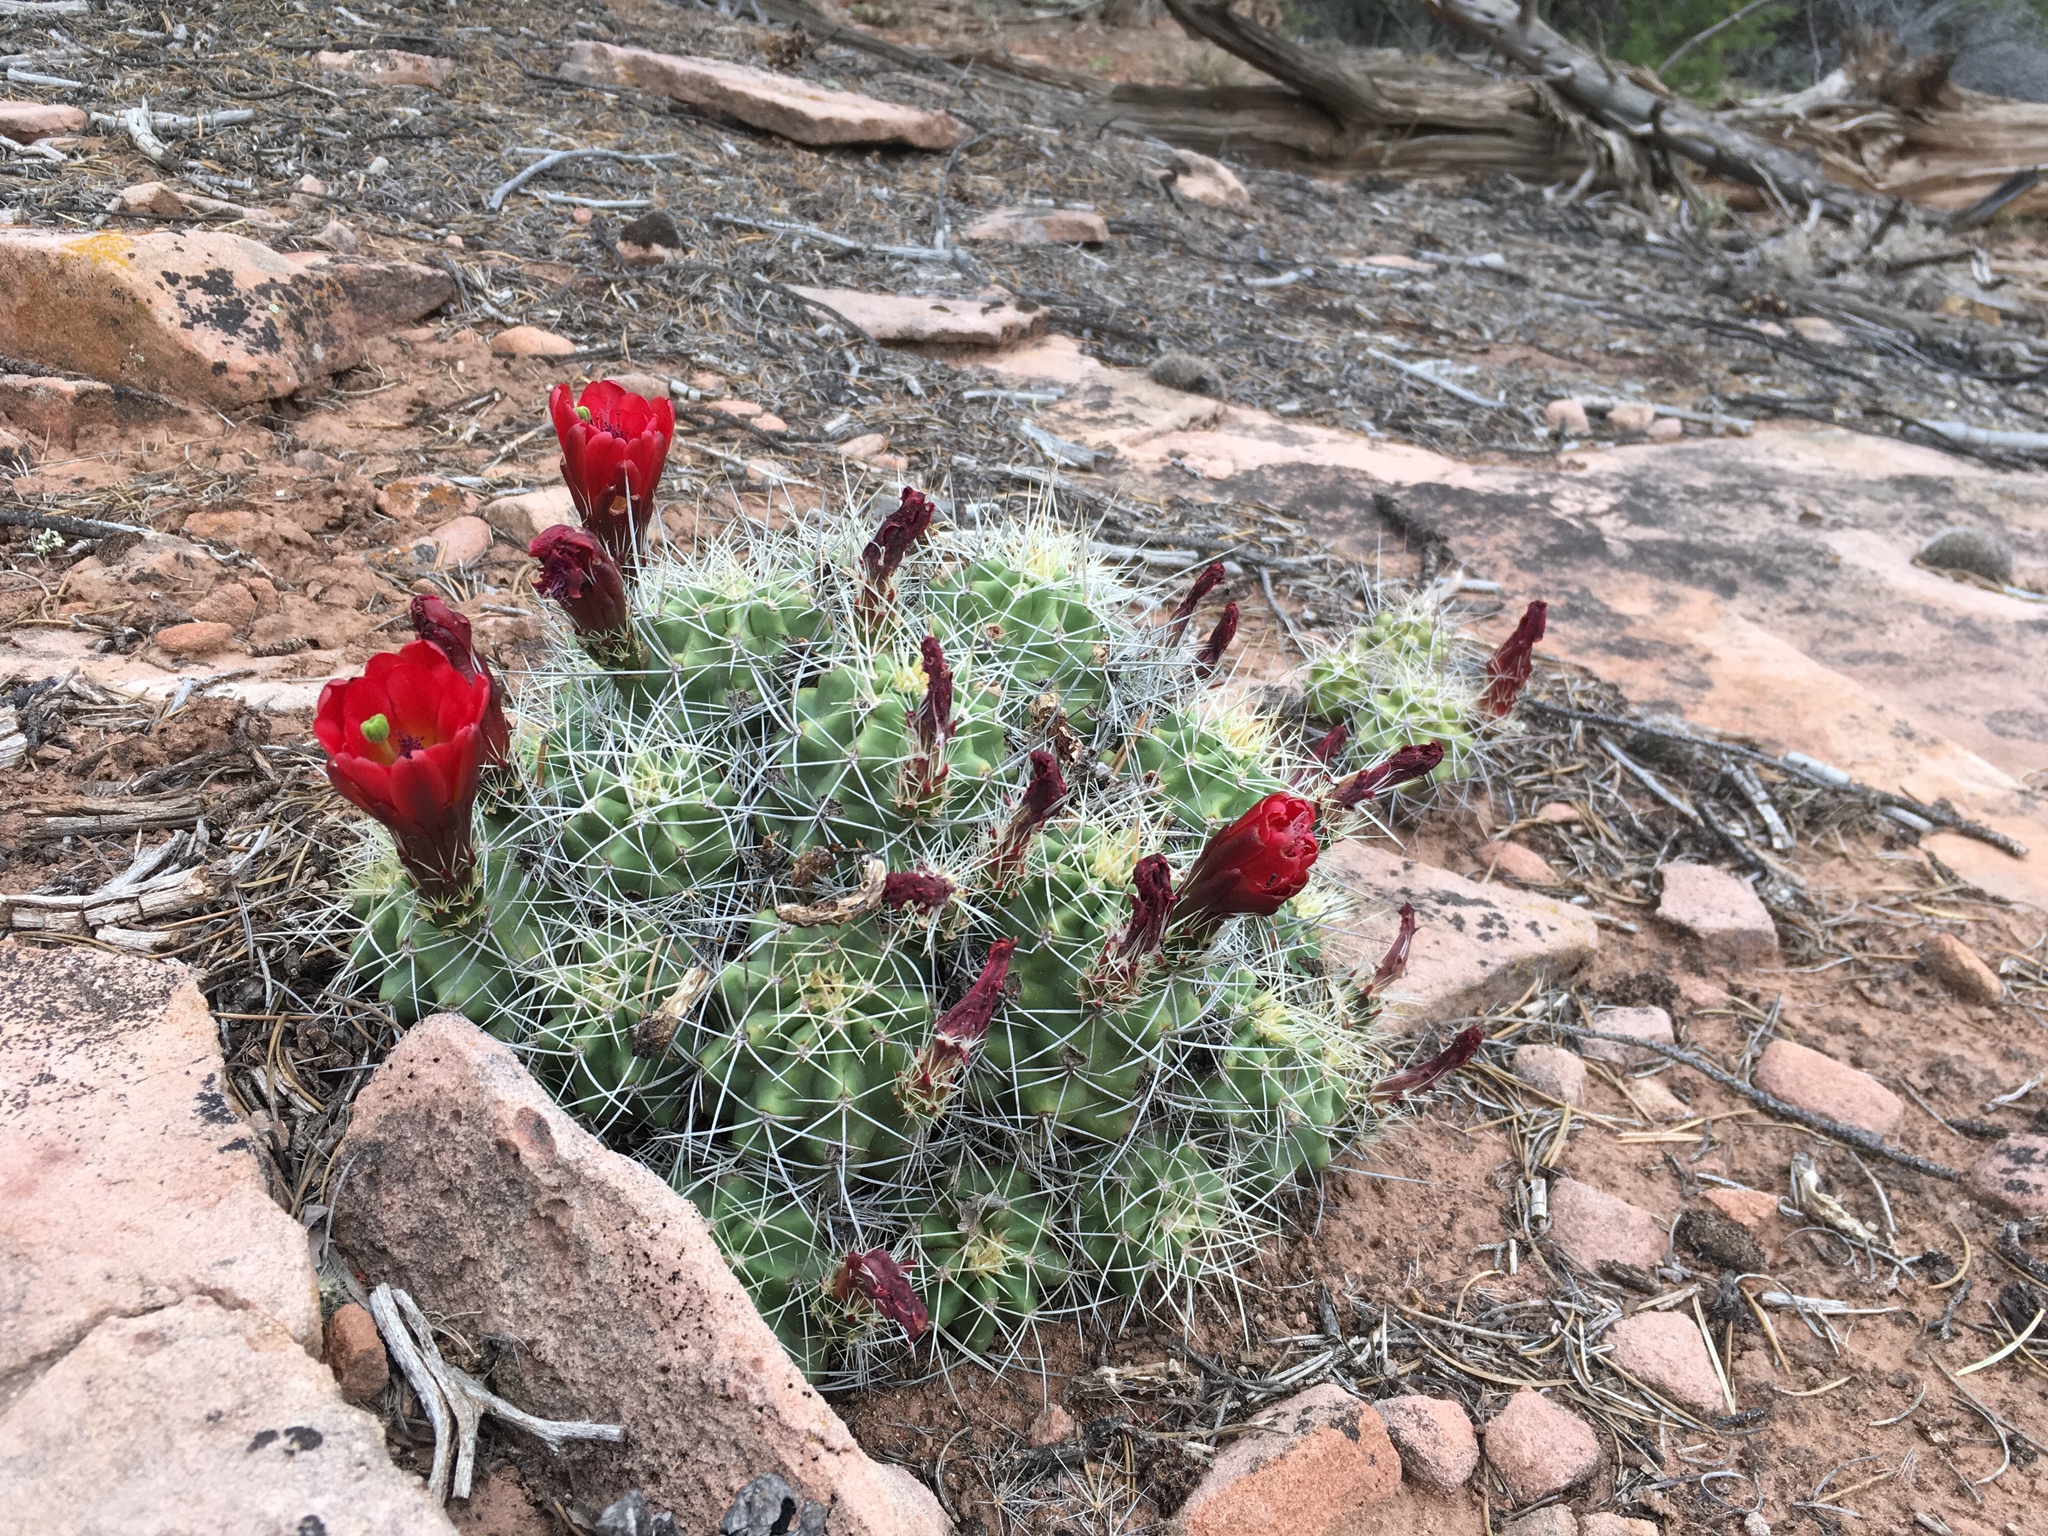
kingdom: Plantae
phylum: Tracheophyta
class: Magnoliopsida
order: Caryophyllales
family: Cactaceae
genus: Echinocereus
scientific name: Echinocereus triglochidiatus
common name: Claretcup hedgehog
